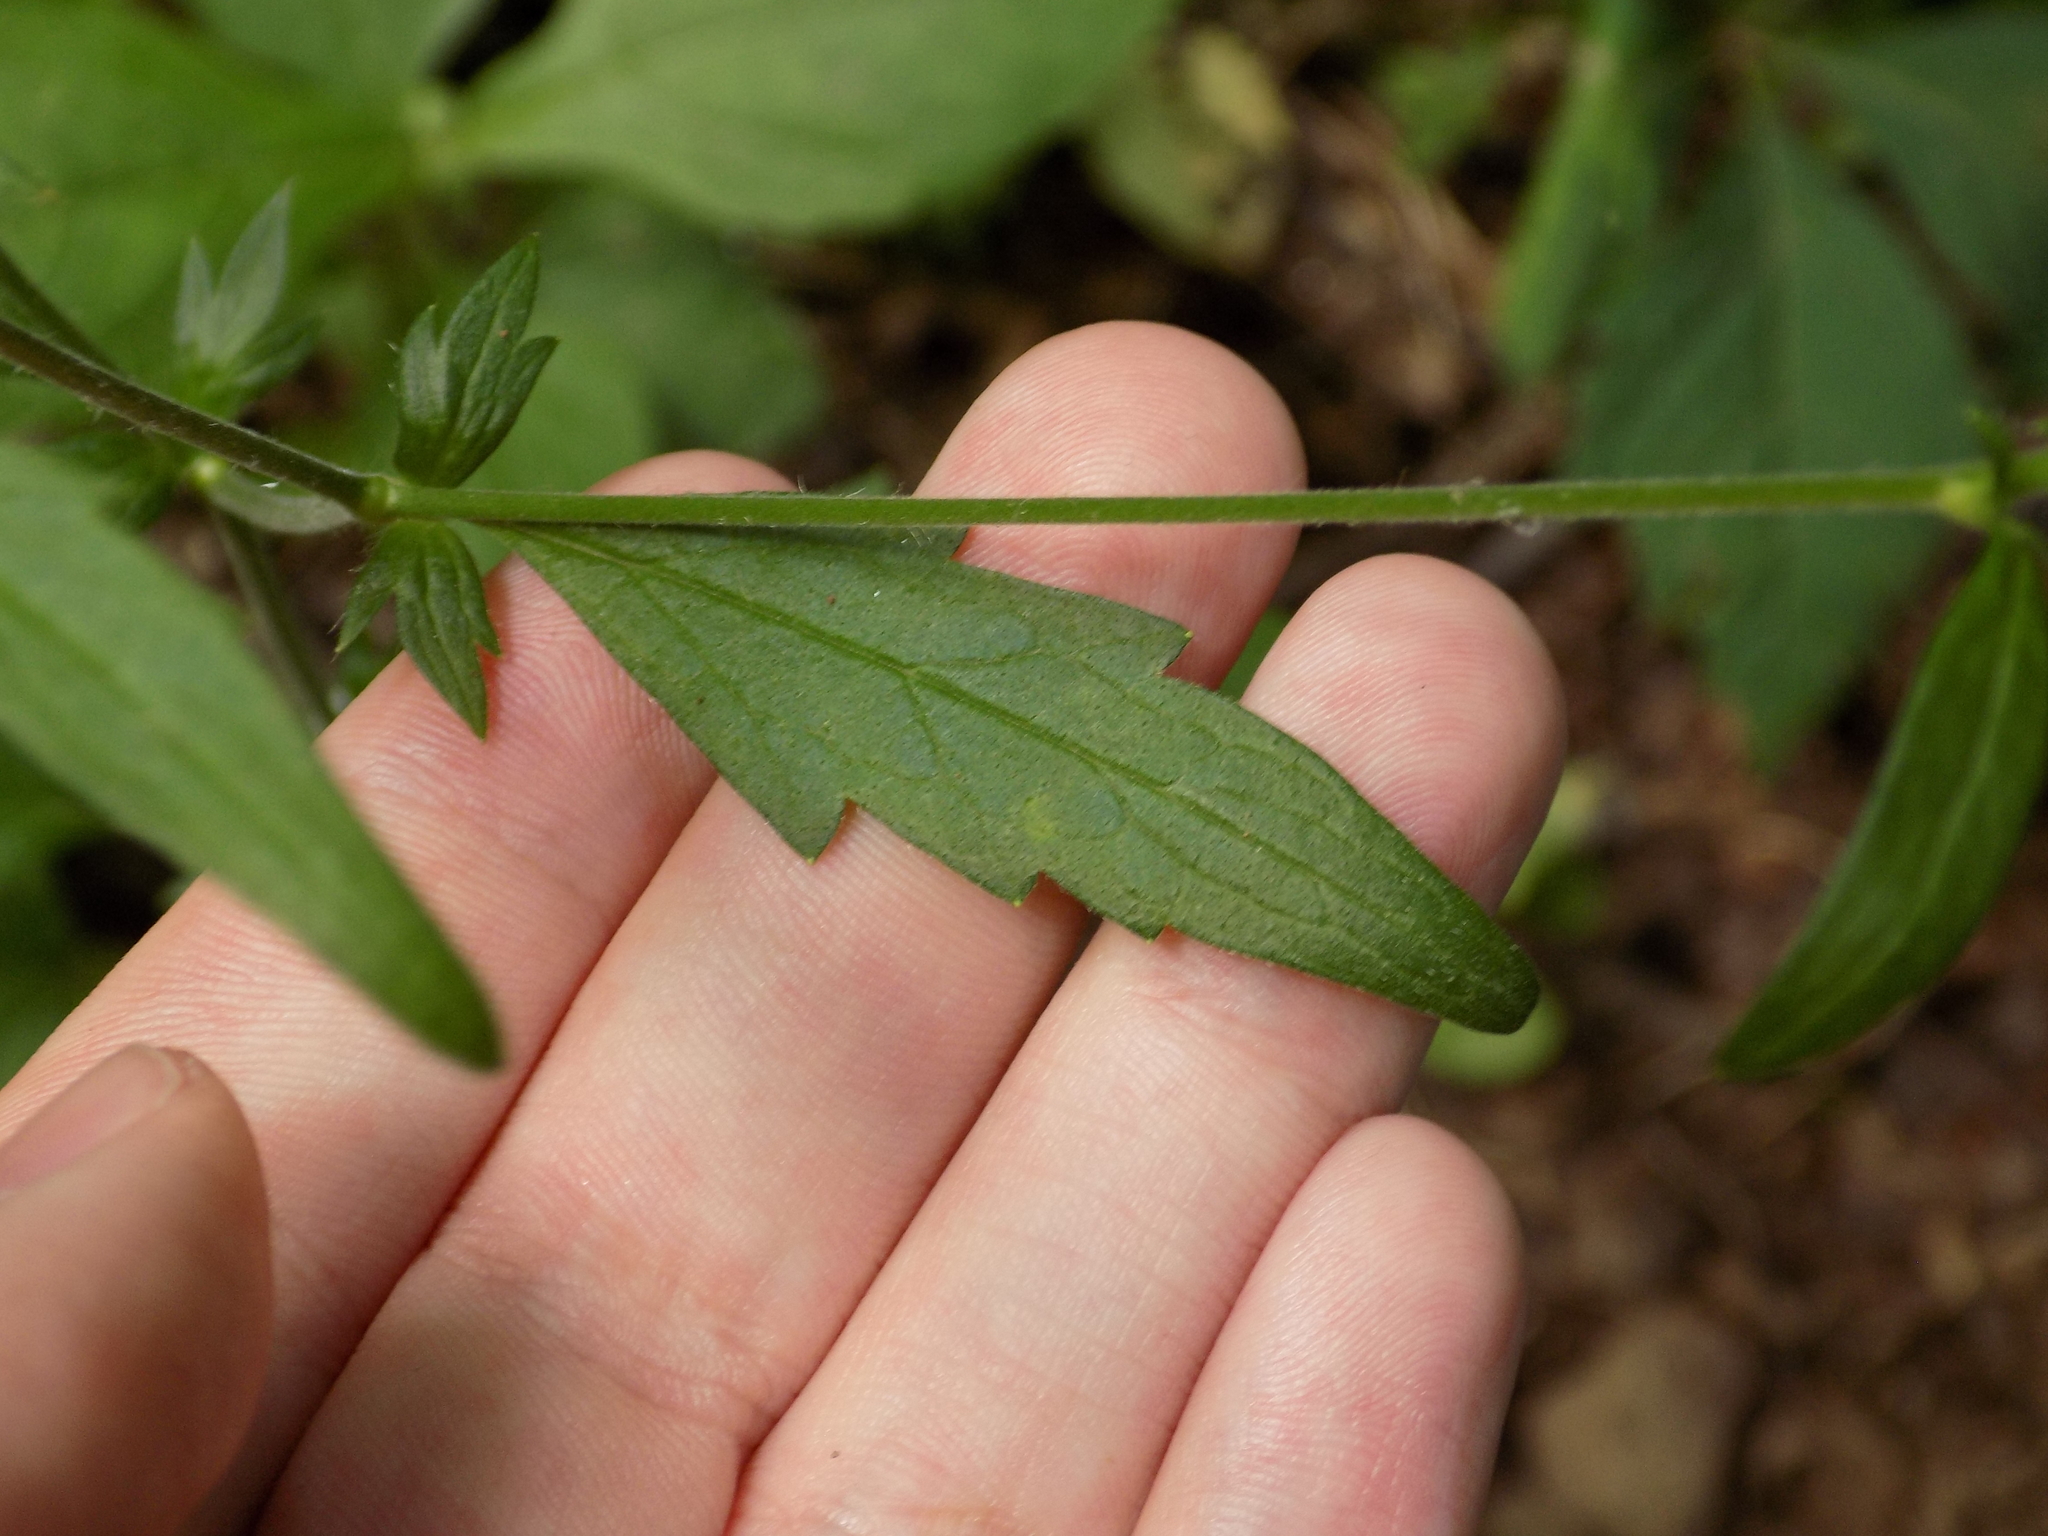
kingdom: Plantae
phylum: Tracheophyta
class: Magnoliopsida
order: Rosales
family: Rosaceae
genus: Geum
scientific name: Geum canadense
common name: White avens
